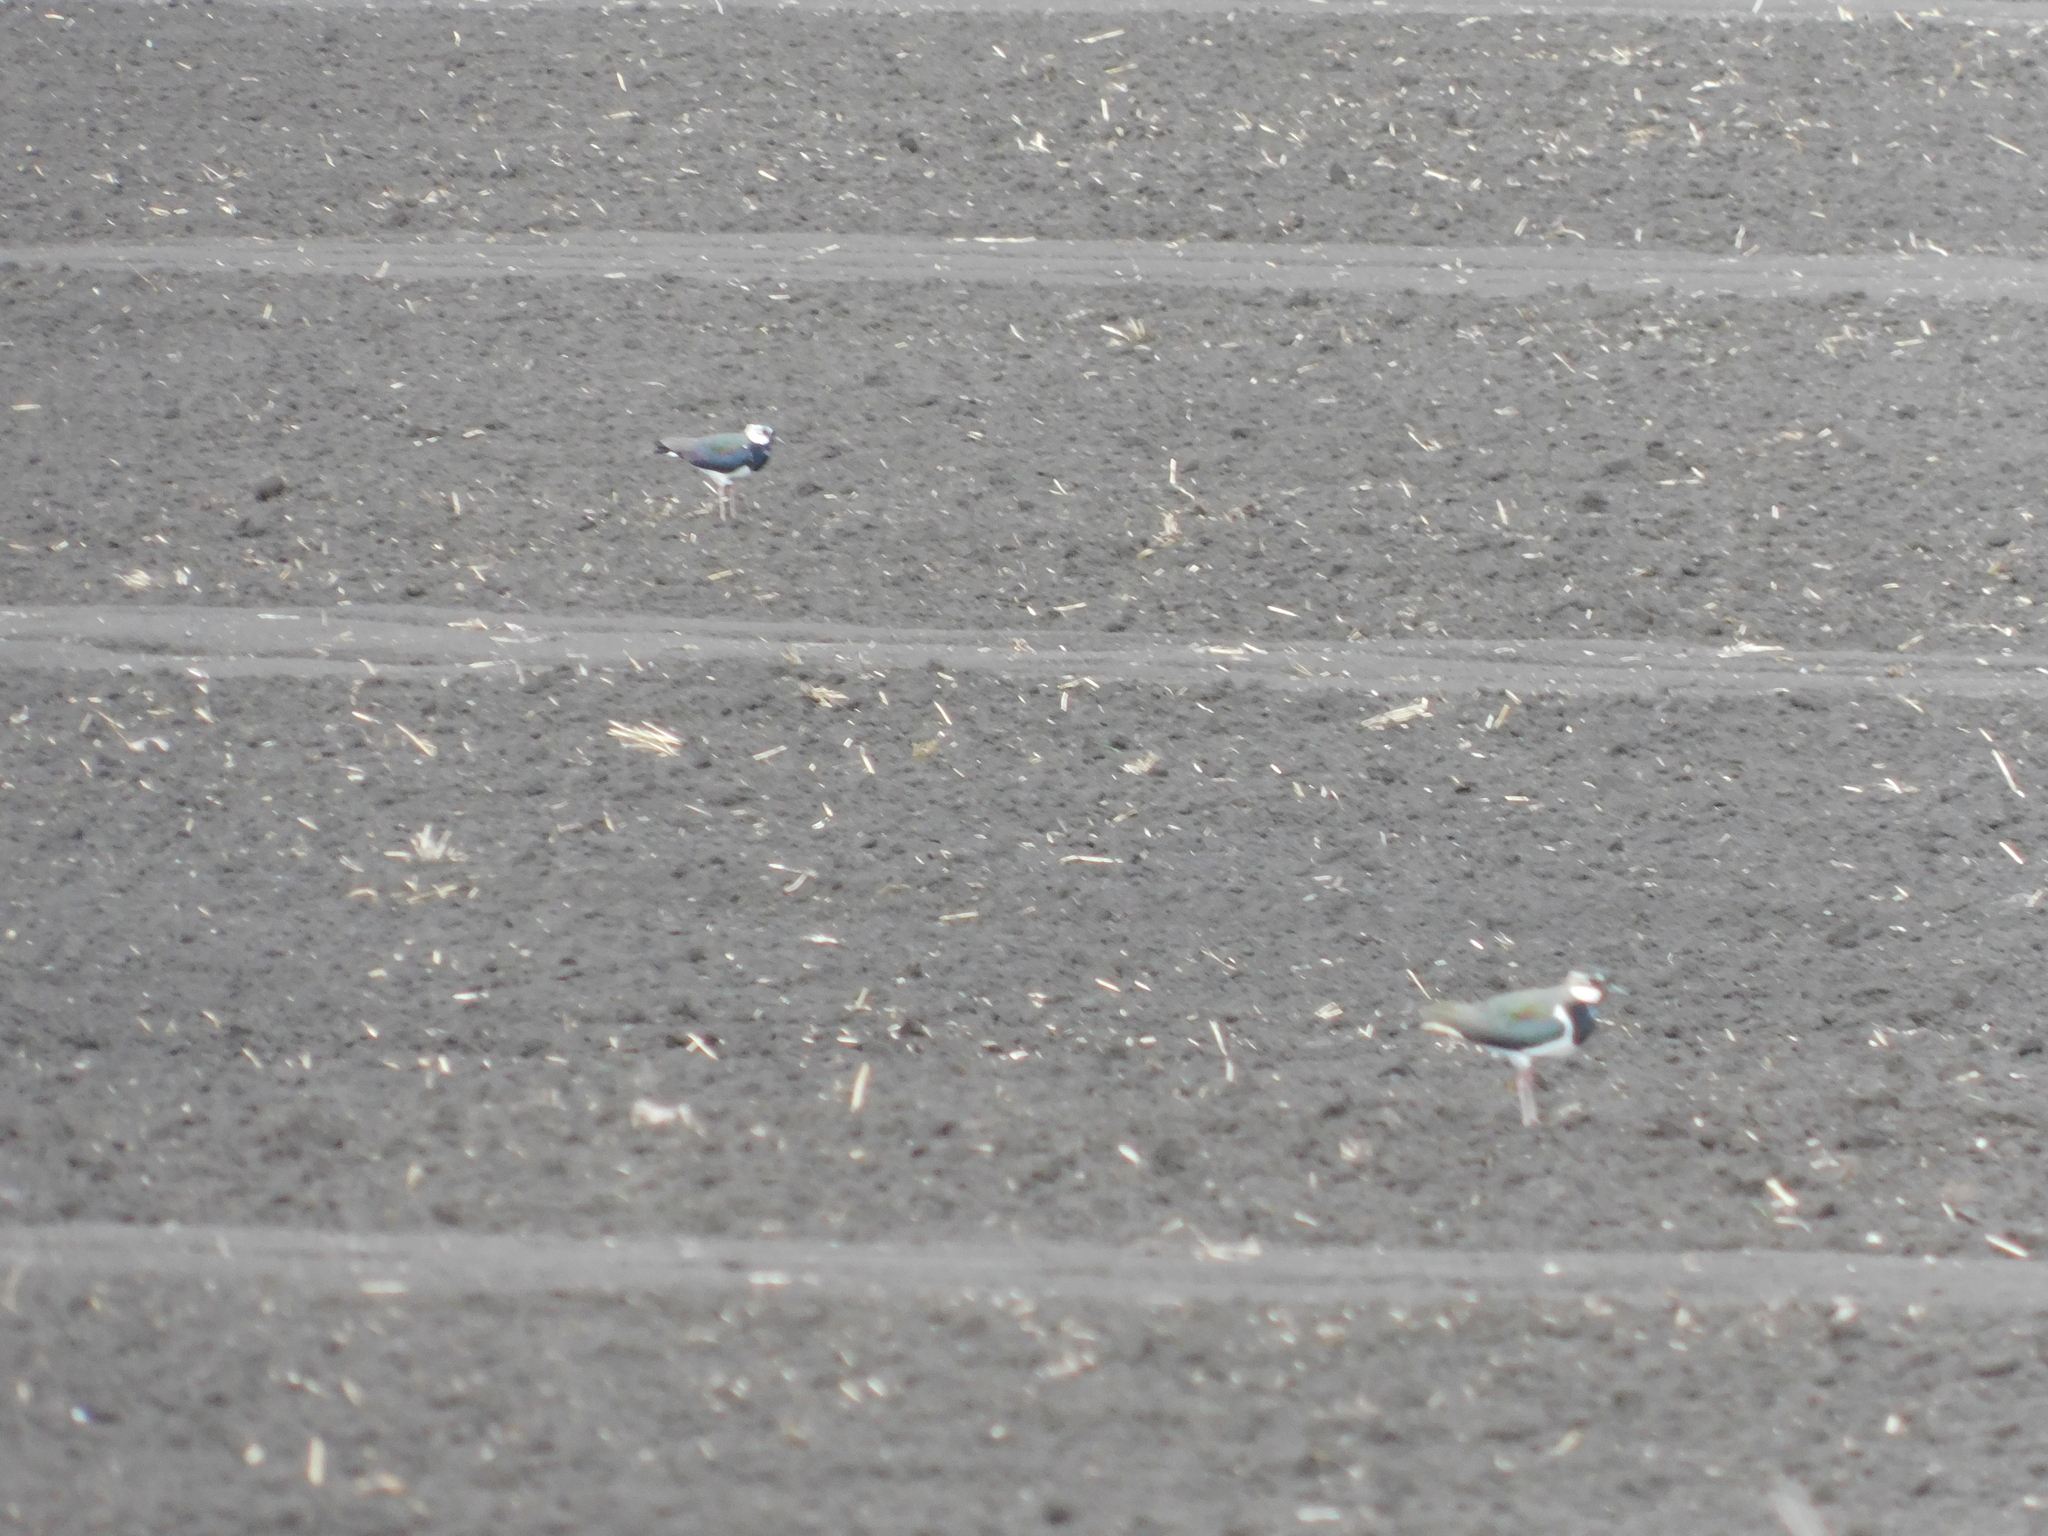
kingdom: Animalia
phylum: Chordata
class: Aves
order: Charadriiformes
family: Charadriidae
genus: Vanellus
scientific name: Vanellus vanellus
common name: Northern lapwing
